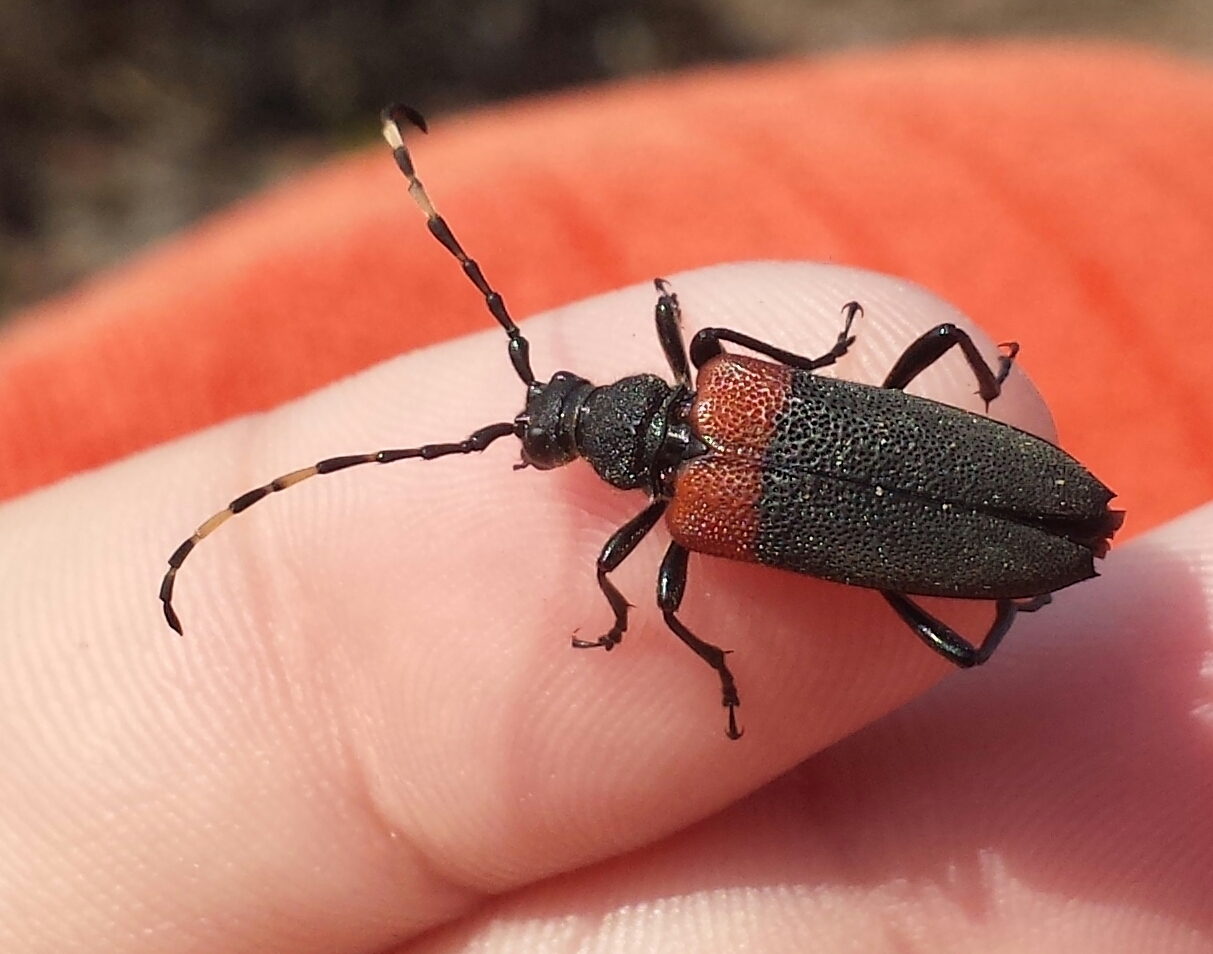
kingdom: Animalia
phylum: Arthropoda
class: Insecta
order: Coleoptera
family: Cerambycidae
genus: Stictoleptura
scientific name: Stictoleptura canadensis
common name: Red-shouldered pine borer
